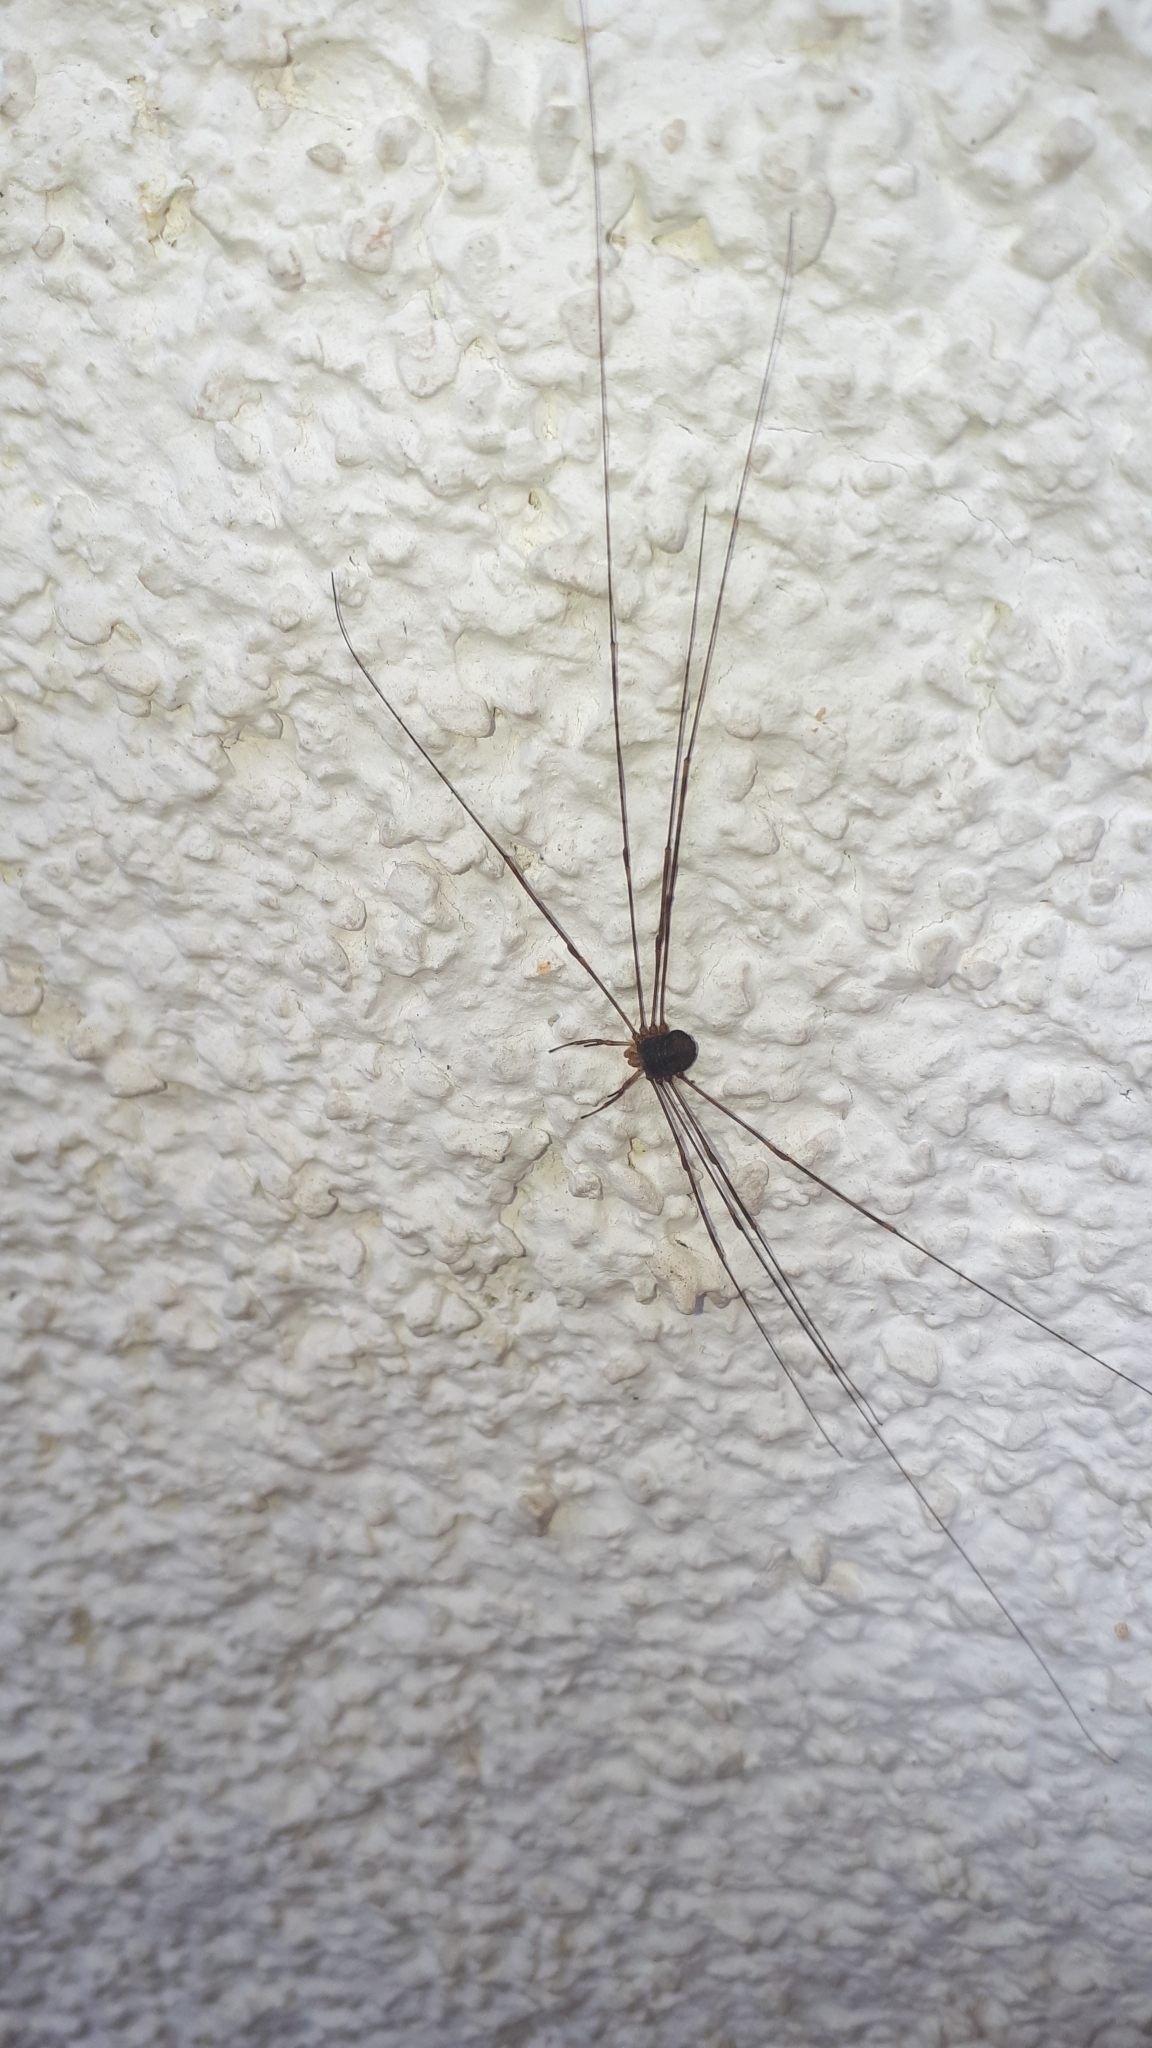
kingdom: Animalia
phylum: Arthropoda
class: Arachnida
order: Opiliones
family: Phalangiidae
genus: Dicranopalpus
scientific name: Dicranopalpus ramosus
